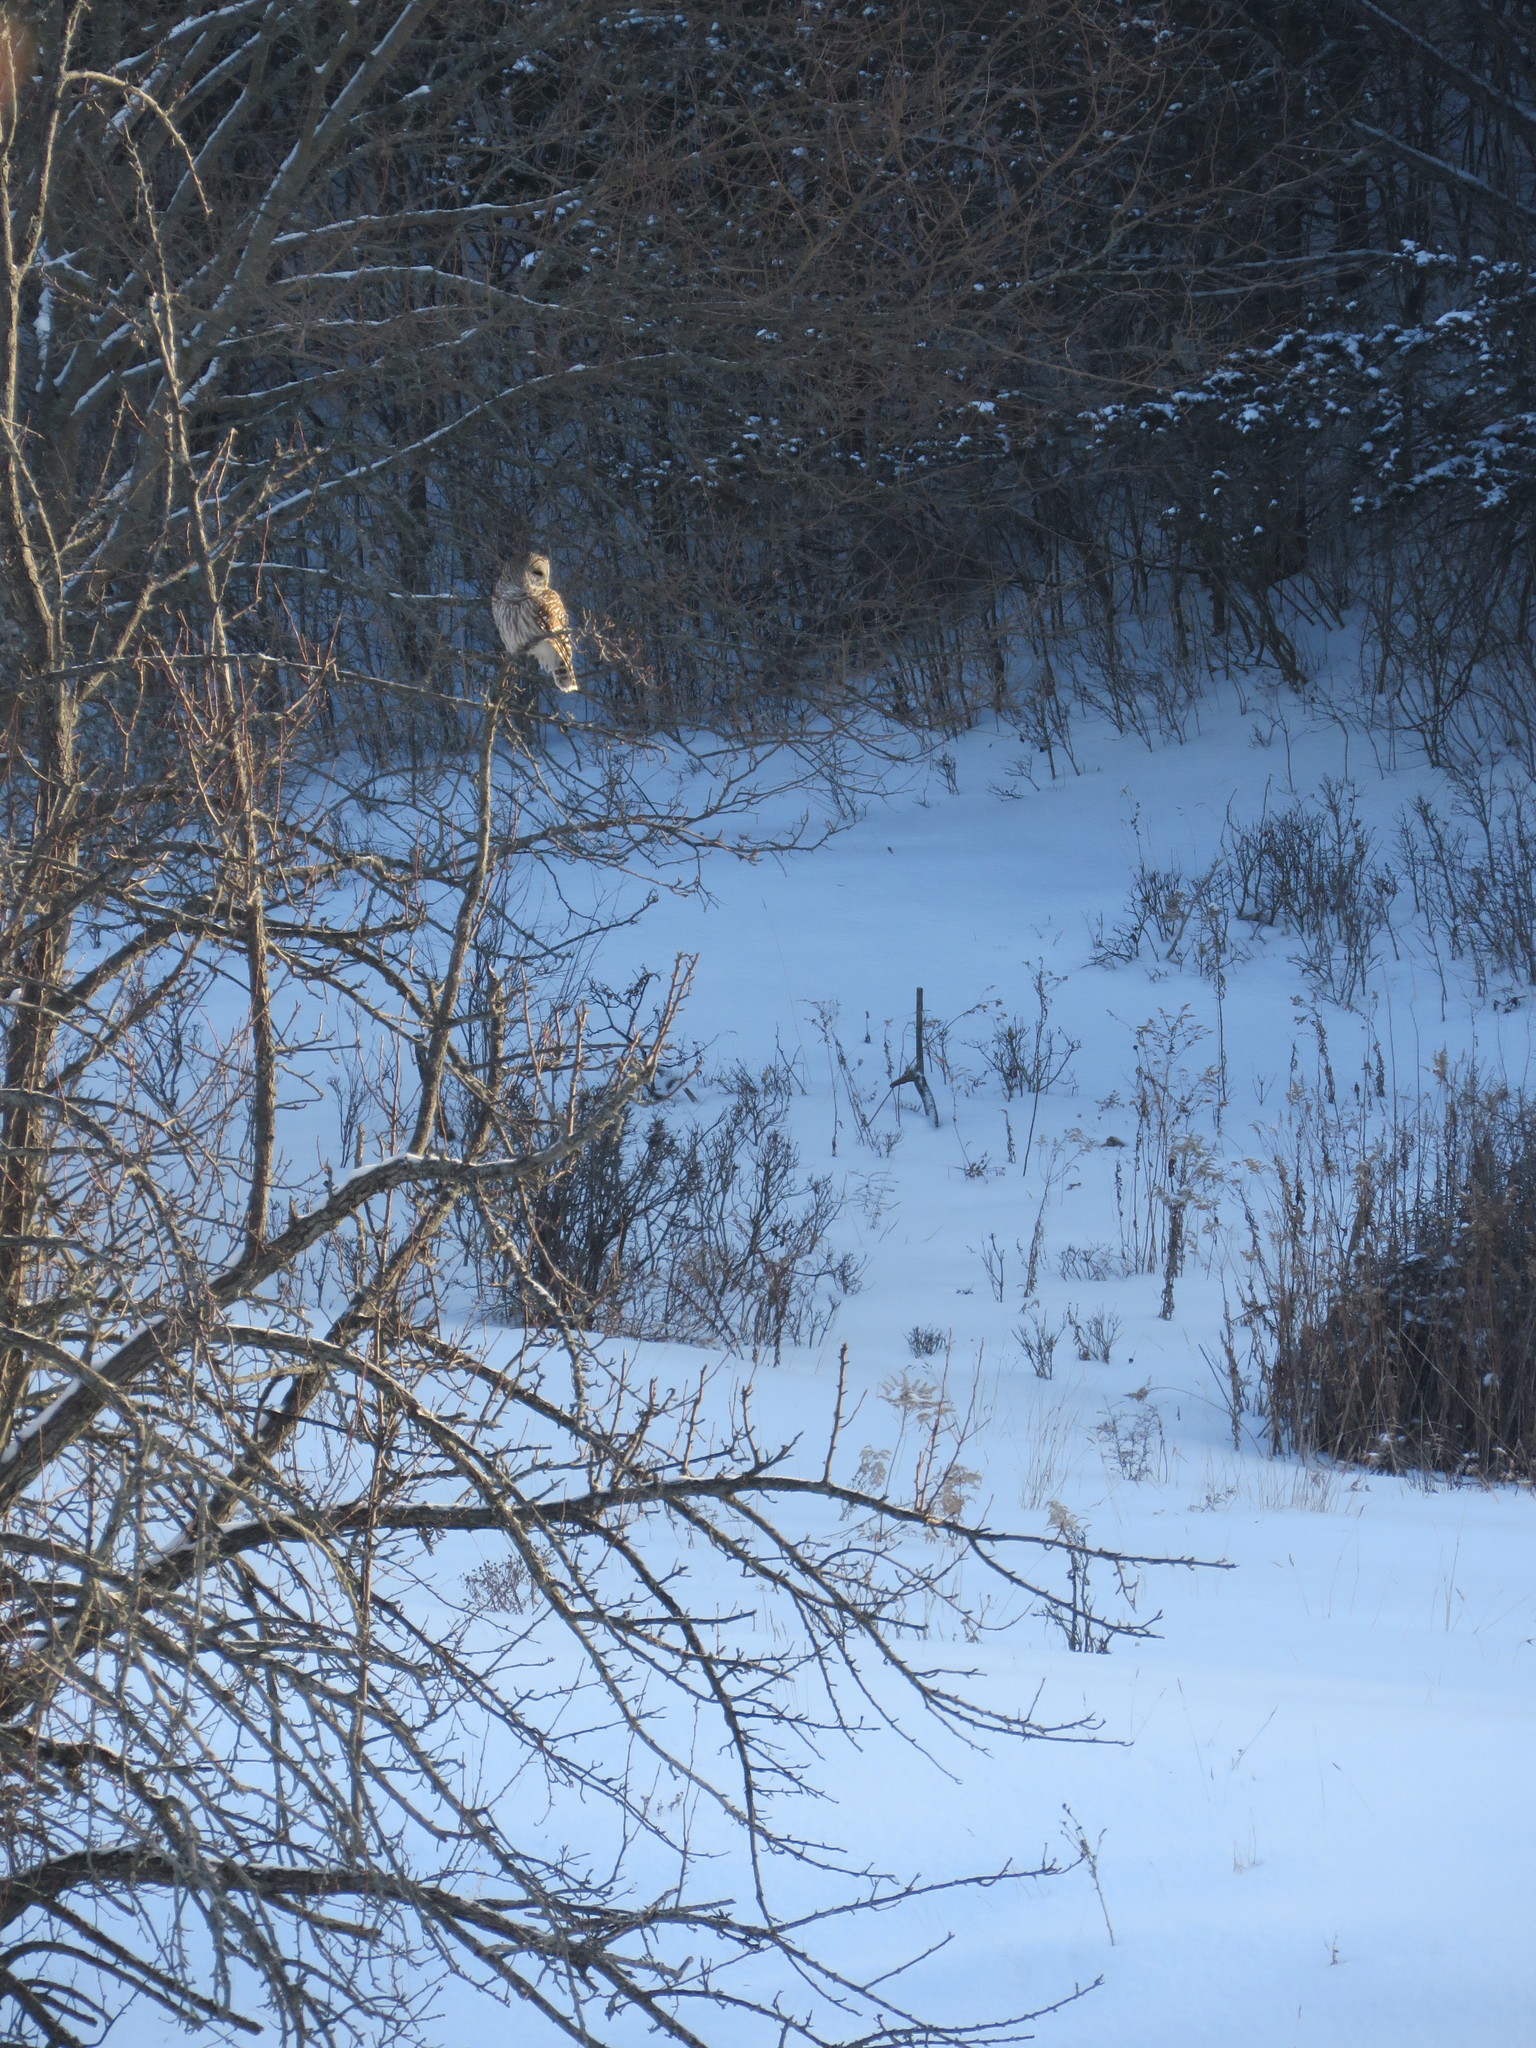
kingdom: Animalia
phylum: Chordata
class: Aves
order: Strigiformes
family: Strigidae
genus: Strix
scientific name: Strix varia
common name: Barred owl
